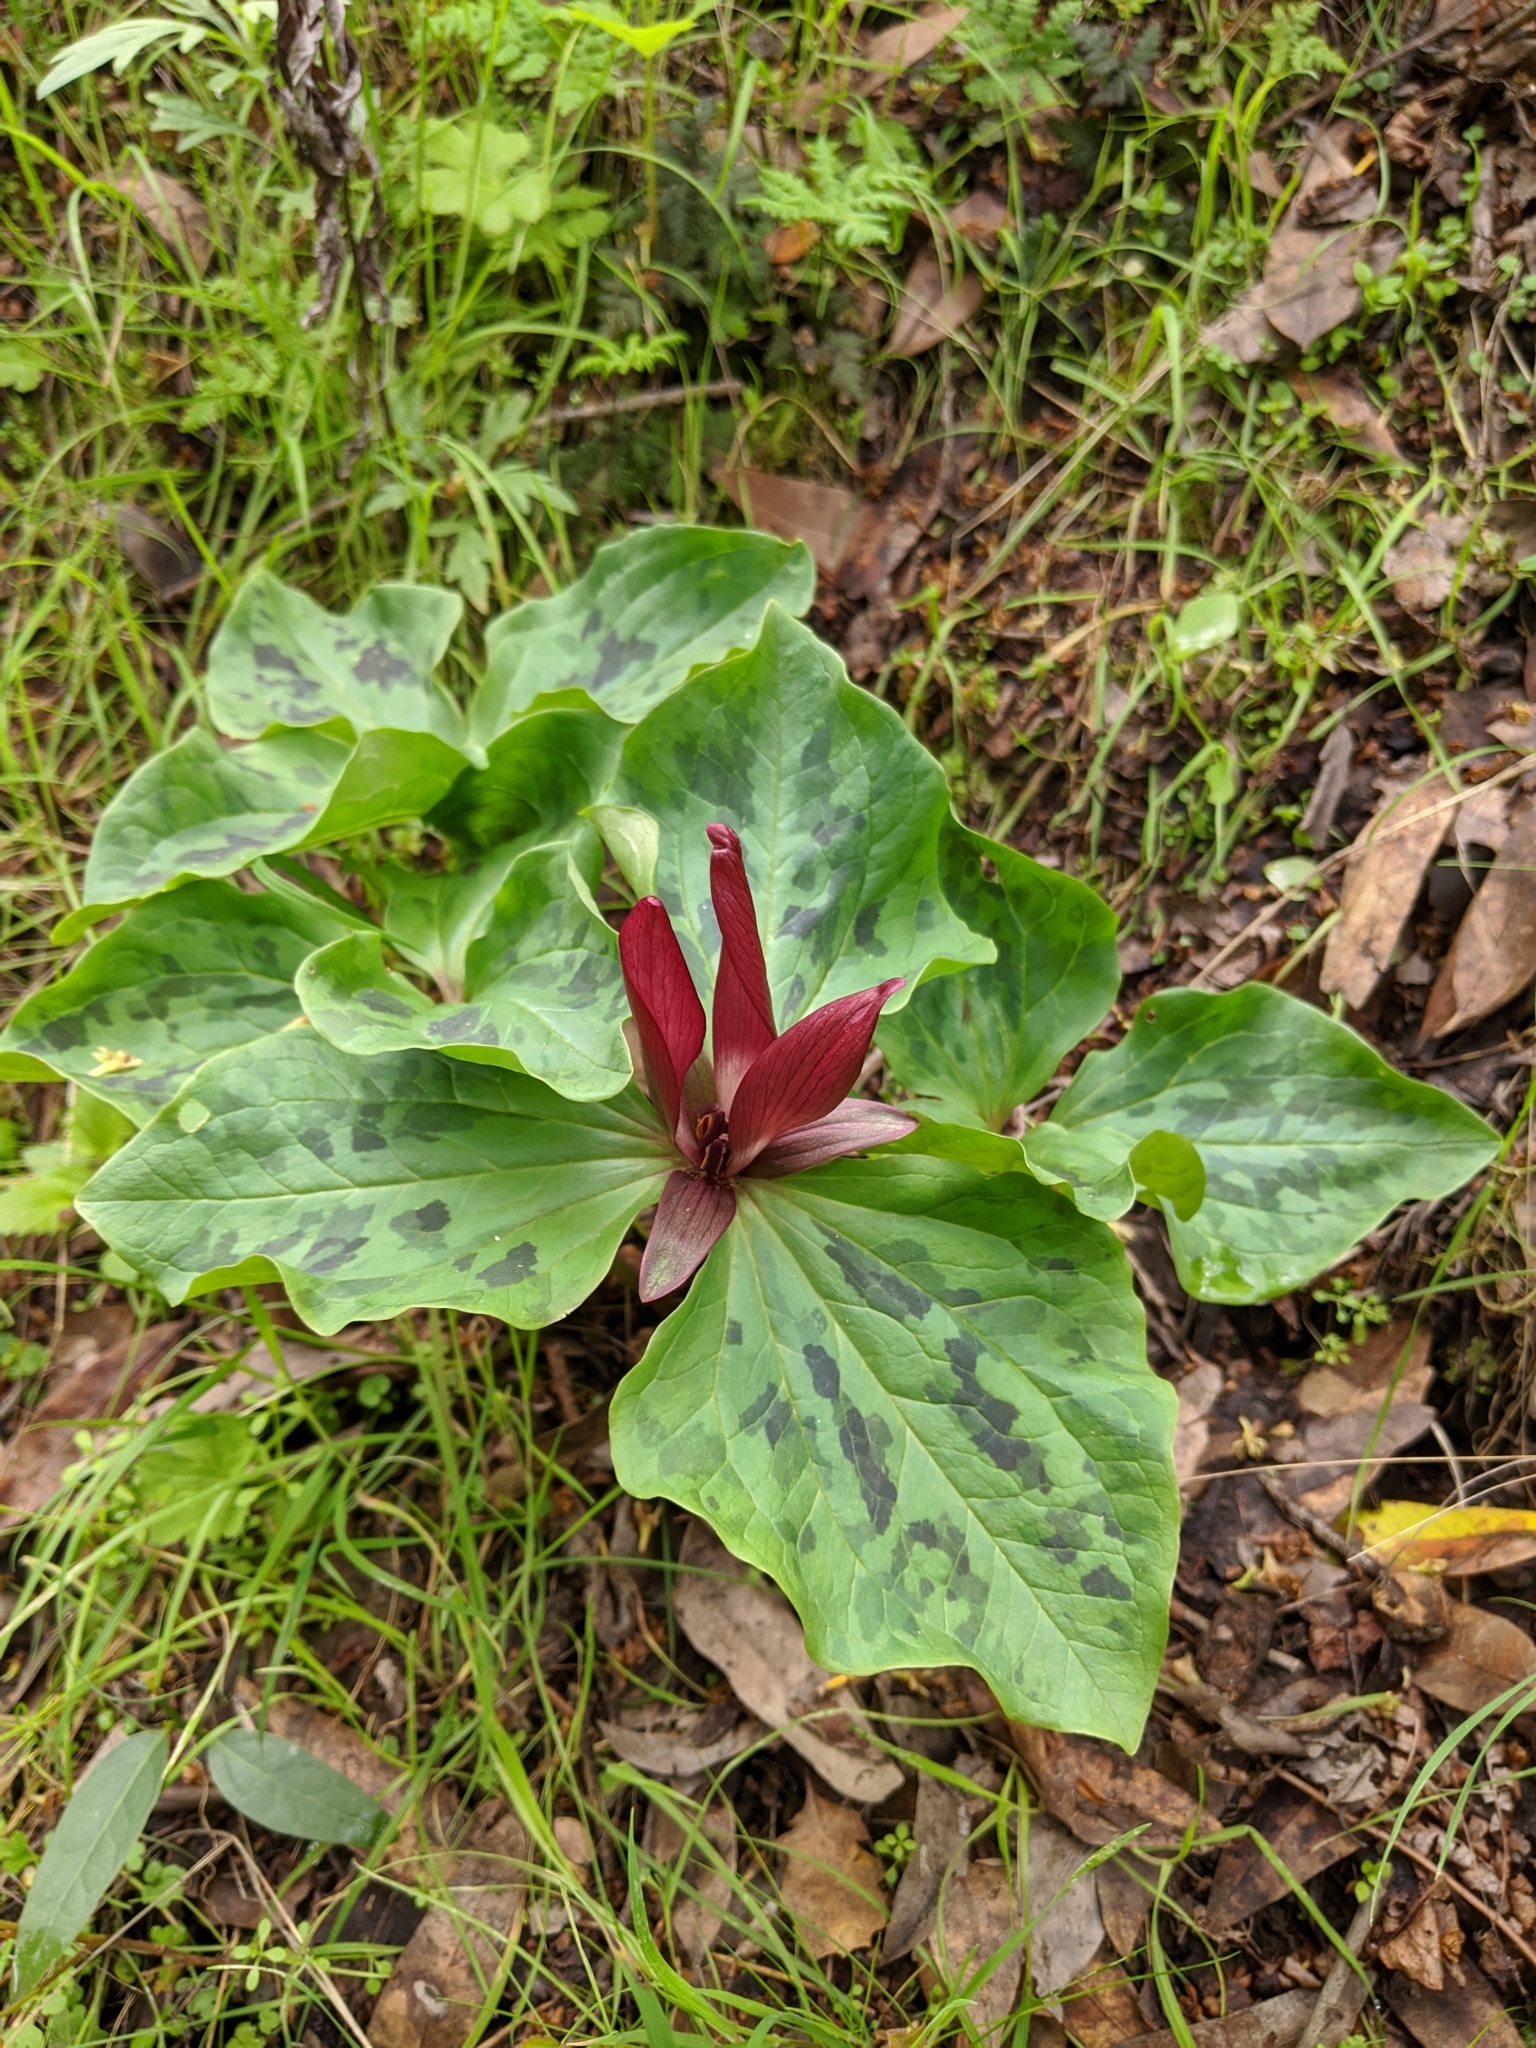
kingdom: Plantae
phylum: Tracheophyta
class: Liliopsida
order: Liliales
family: Melanthiaceae
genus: Trillium
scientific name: Trillium chloropetalum
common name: Giant trillium
